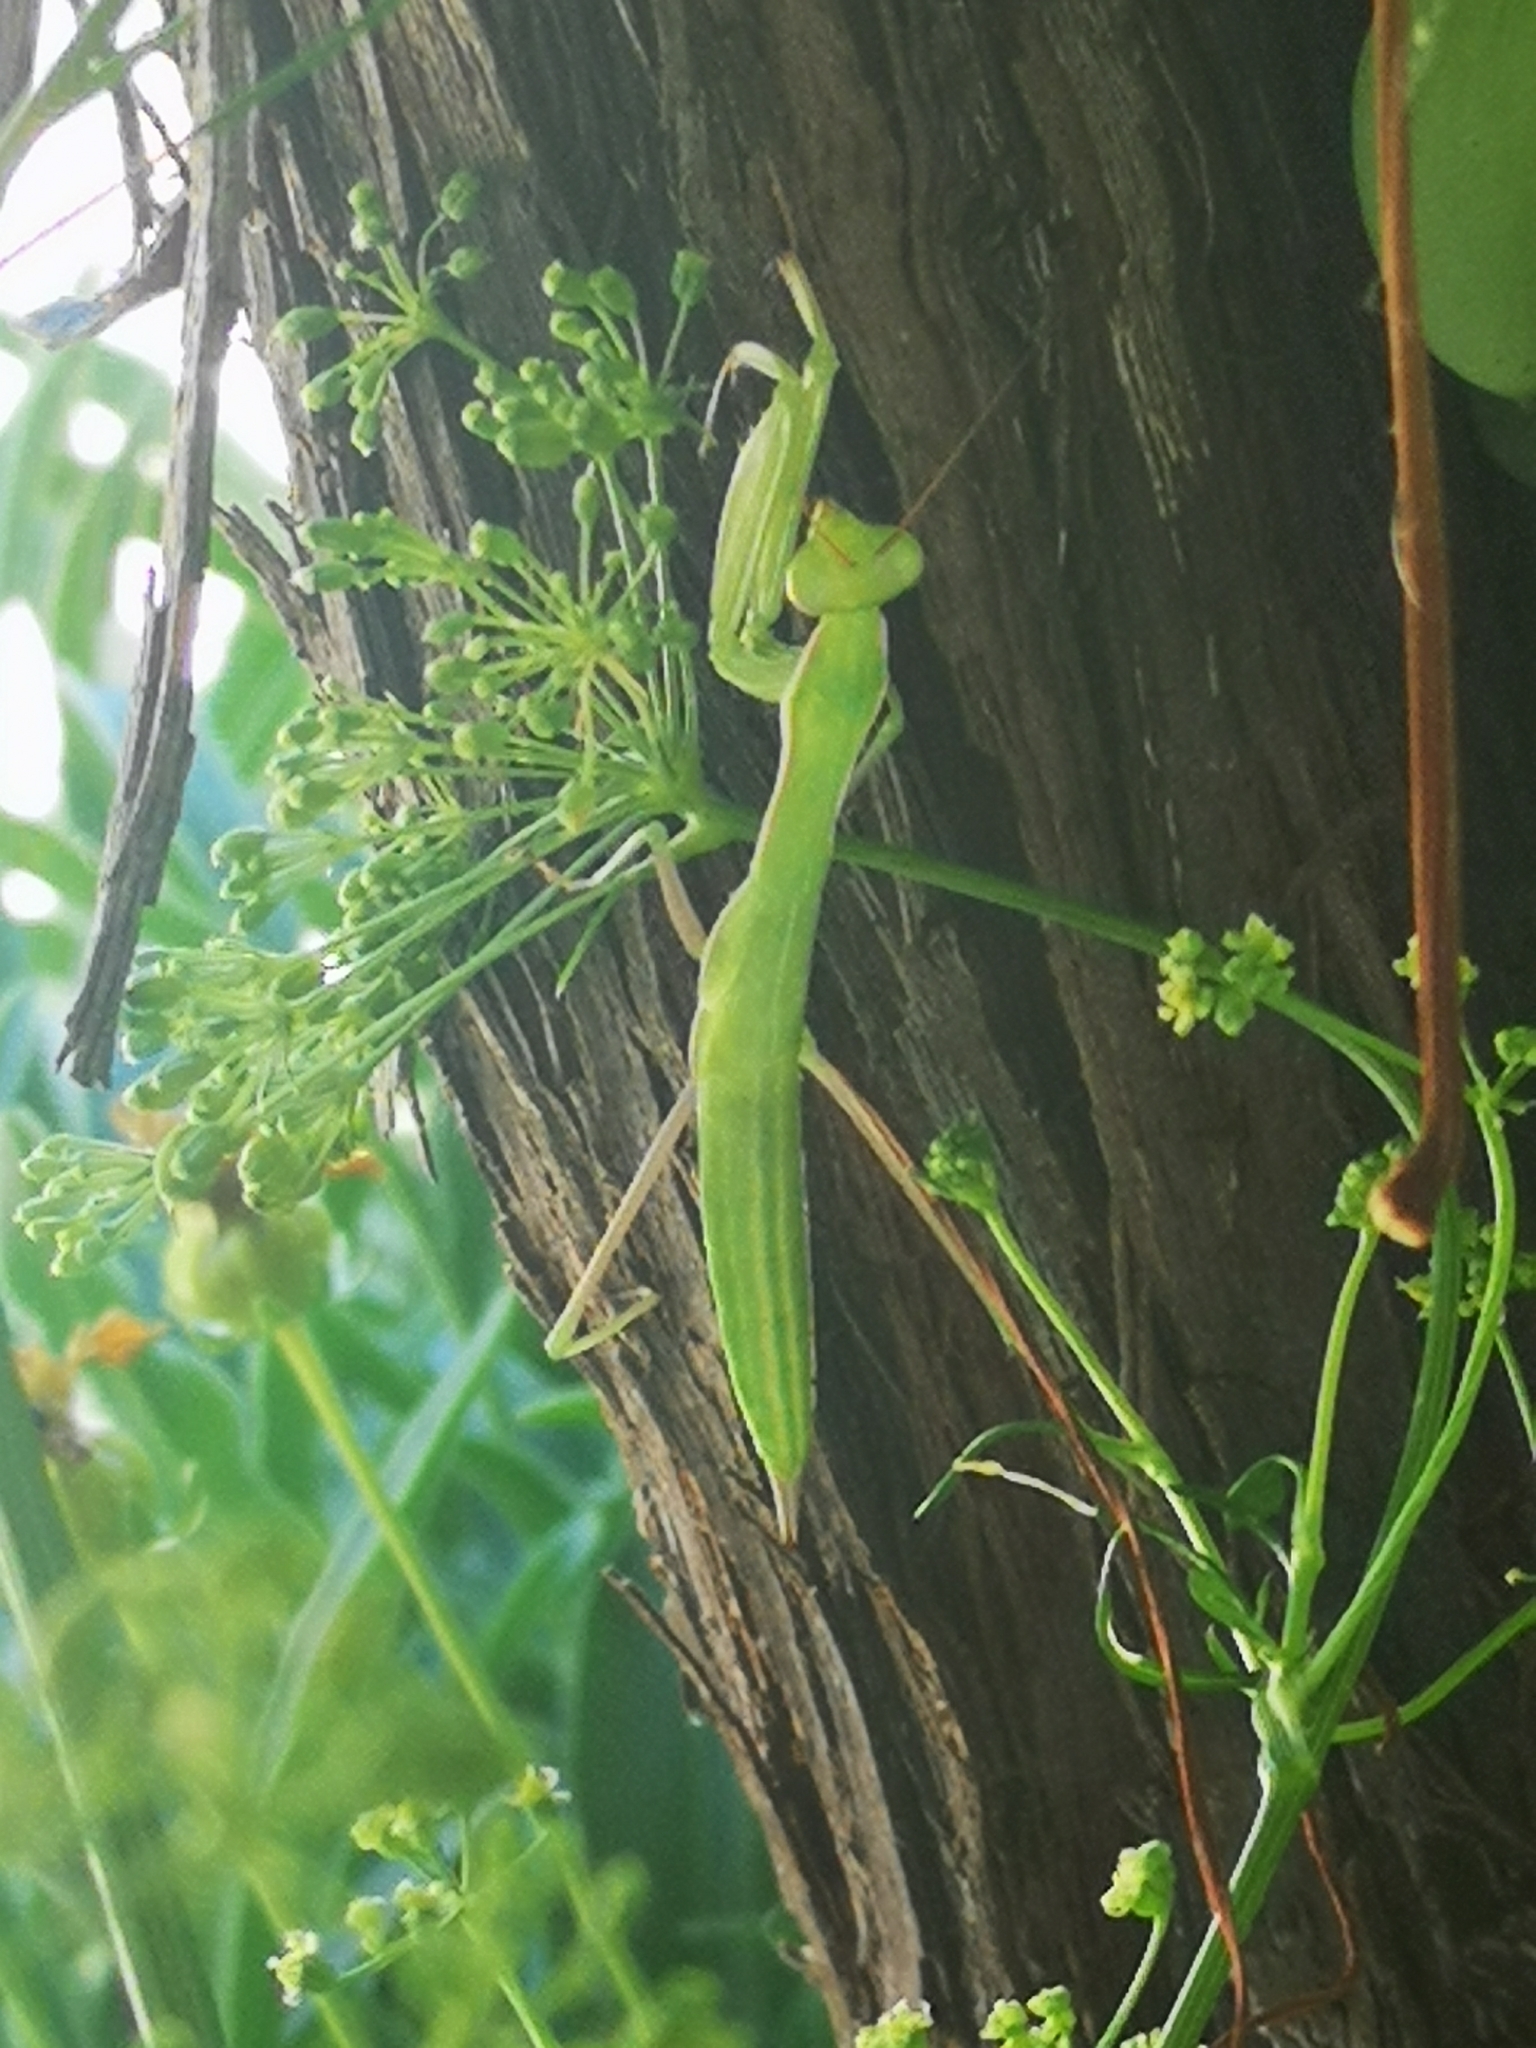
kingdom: Animalia
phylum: Arthropoda
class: Insecta
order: Mantodea
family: Mantidae
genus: Mantis
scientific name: Mantis religiosa
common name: Praying mantis
